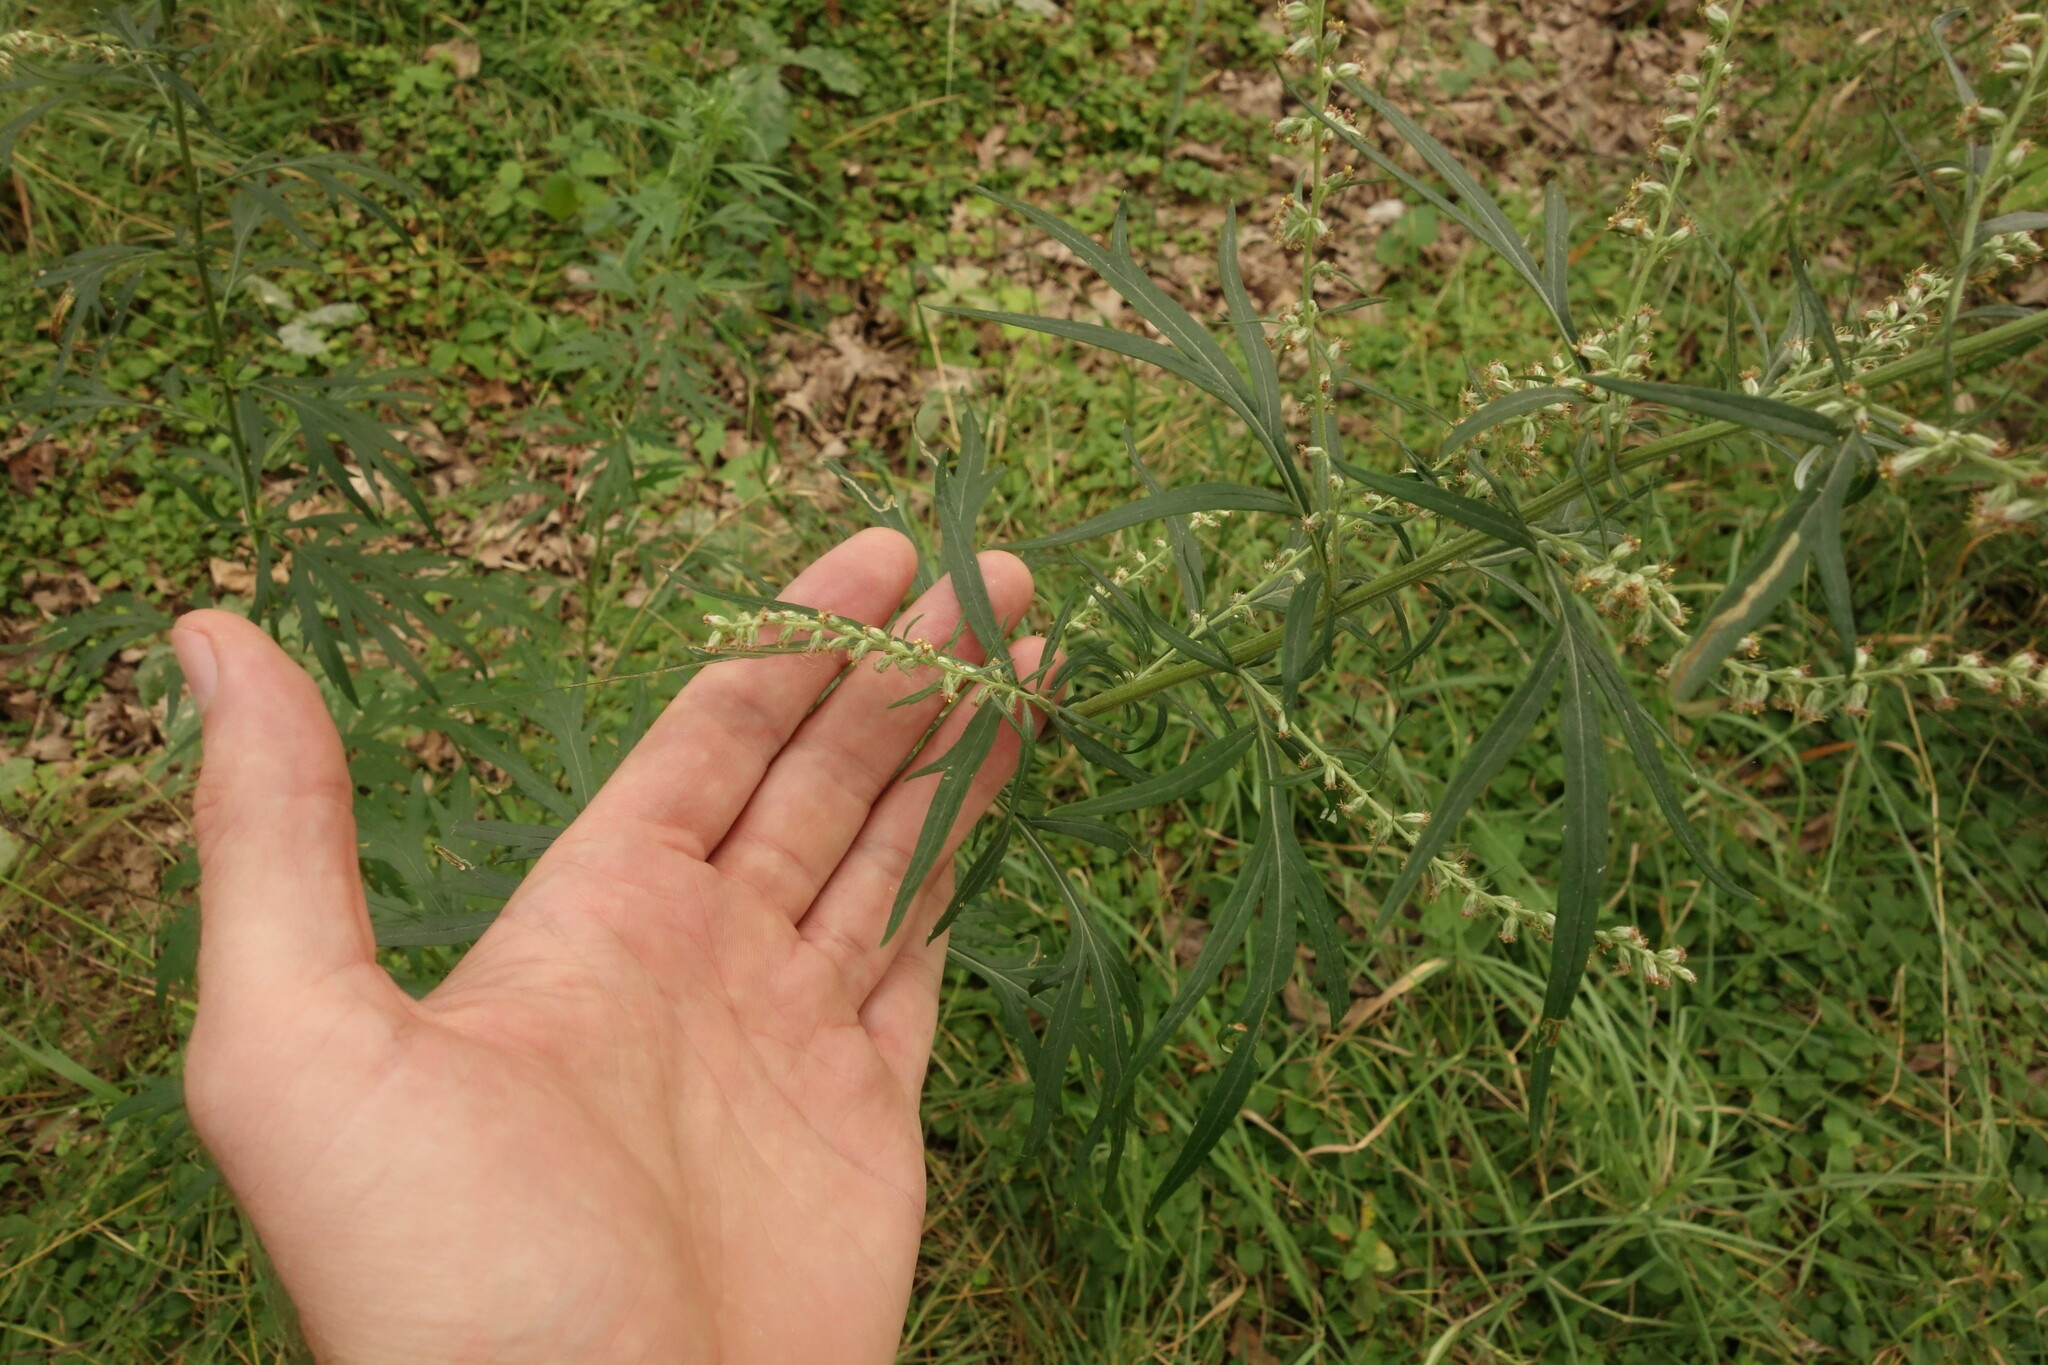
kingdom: Plantae
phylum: Tracheophyta
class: Magnoliopsida
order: Asterales
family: Asteraceae
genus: Artemisia
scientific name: Artemisia vulgaris
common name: Mugwort
